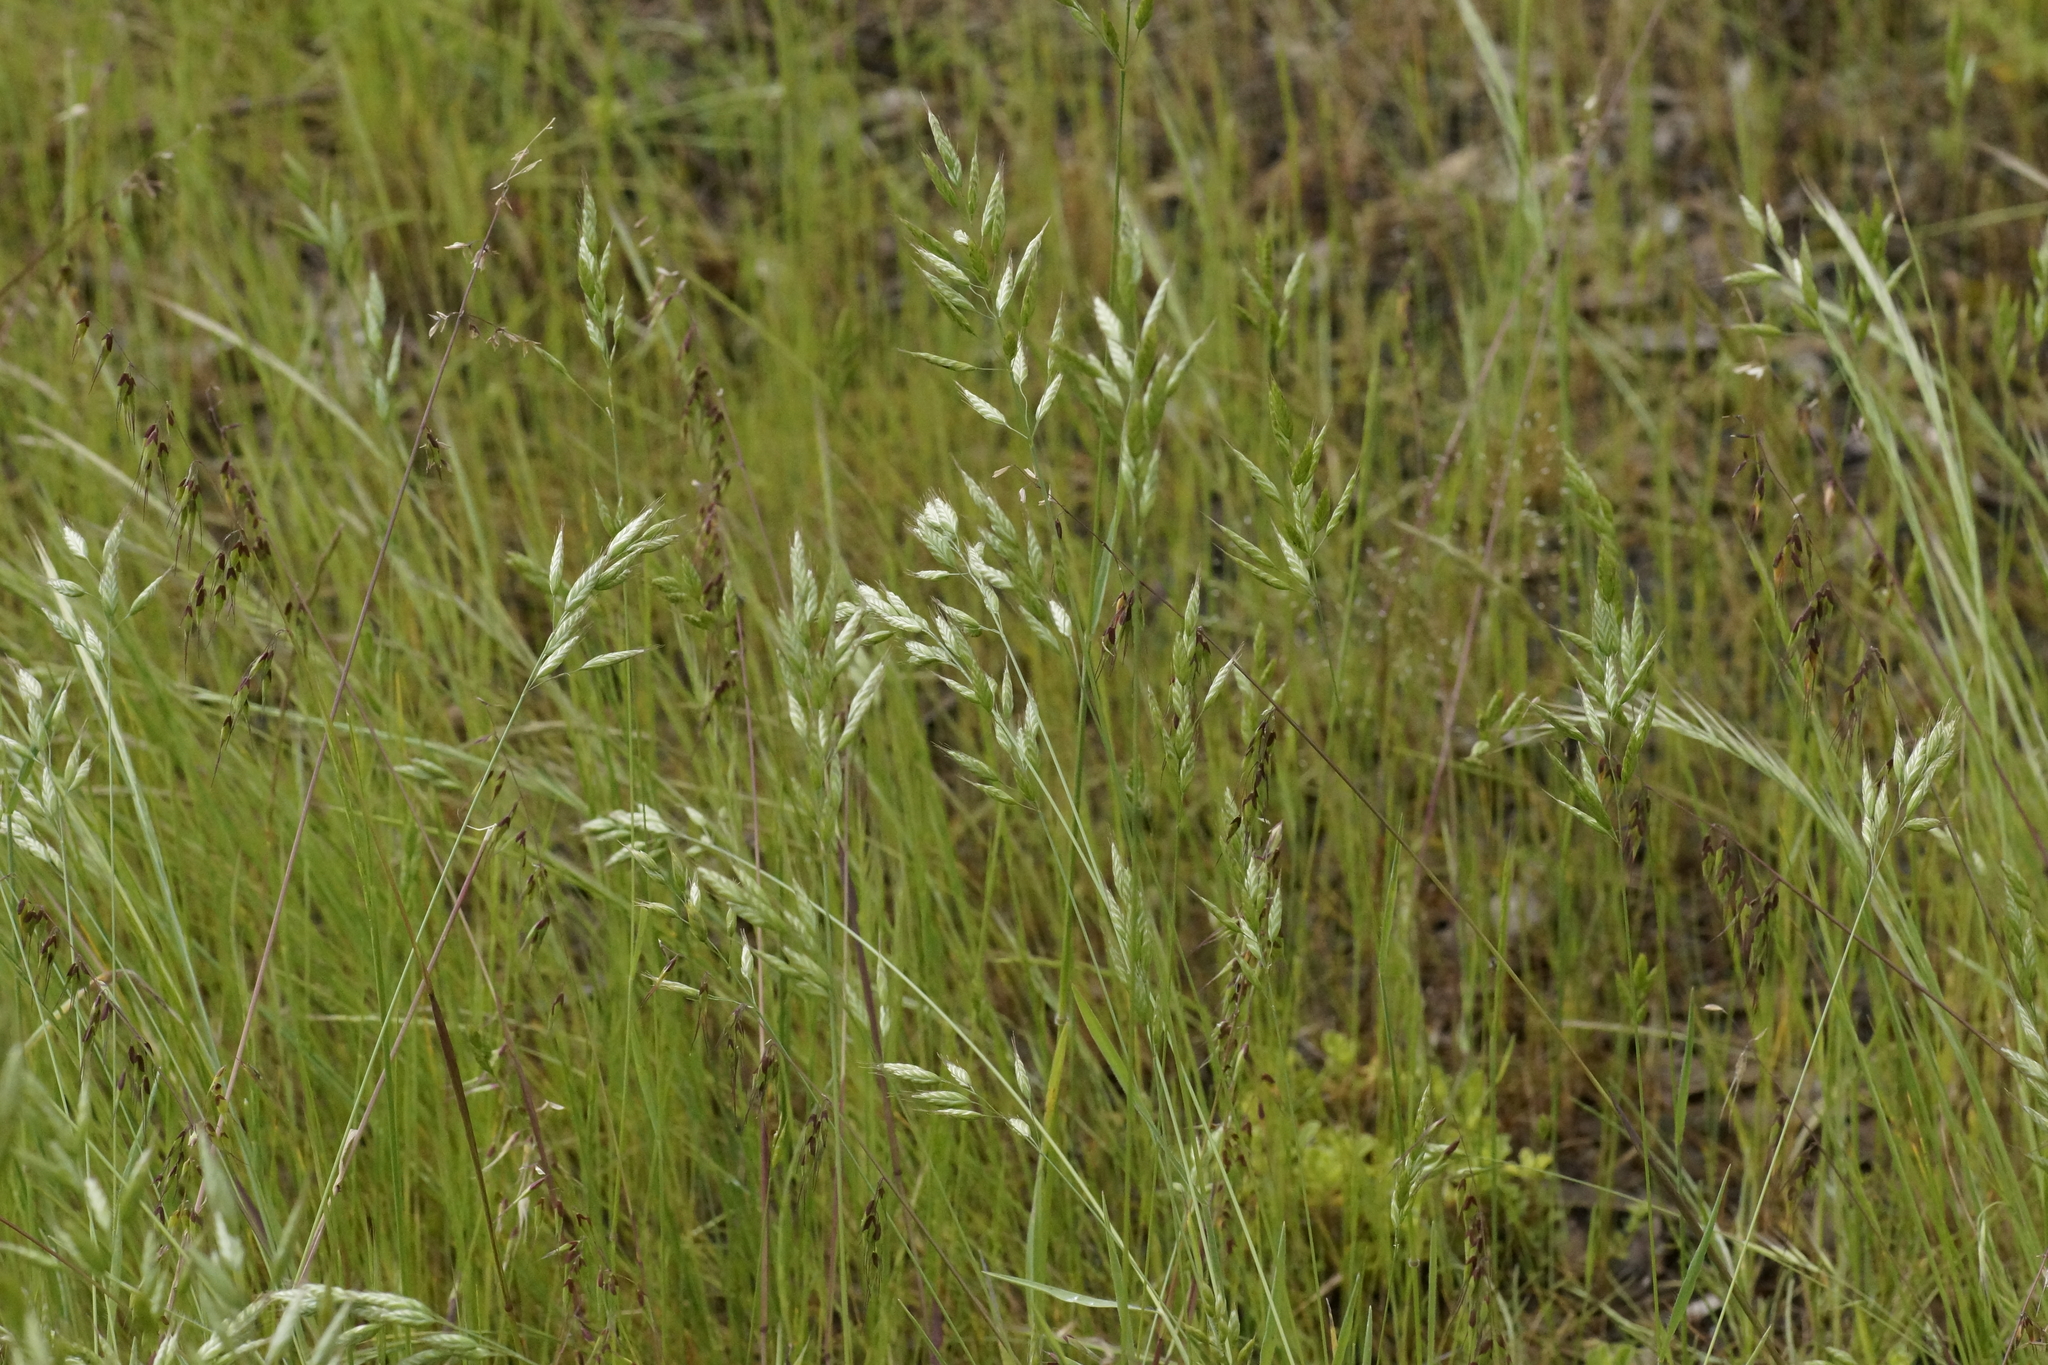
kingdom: Plantae
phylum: Tracheophyta
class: Liliopsida
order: Poales
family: Poaceae
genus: Bromus
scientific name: Bromus hordeaceus
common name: Soft brome
